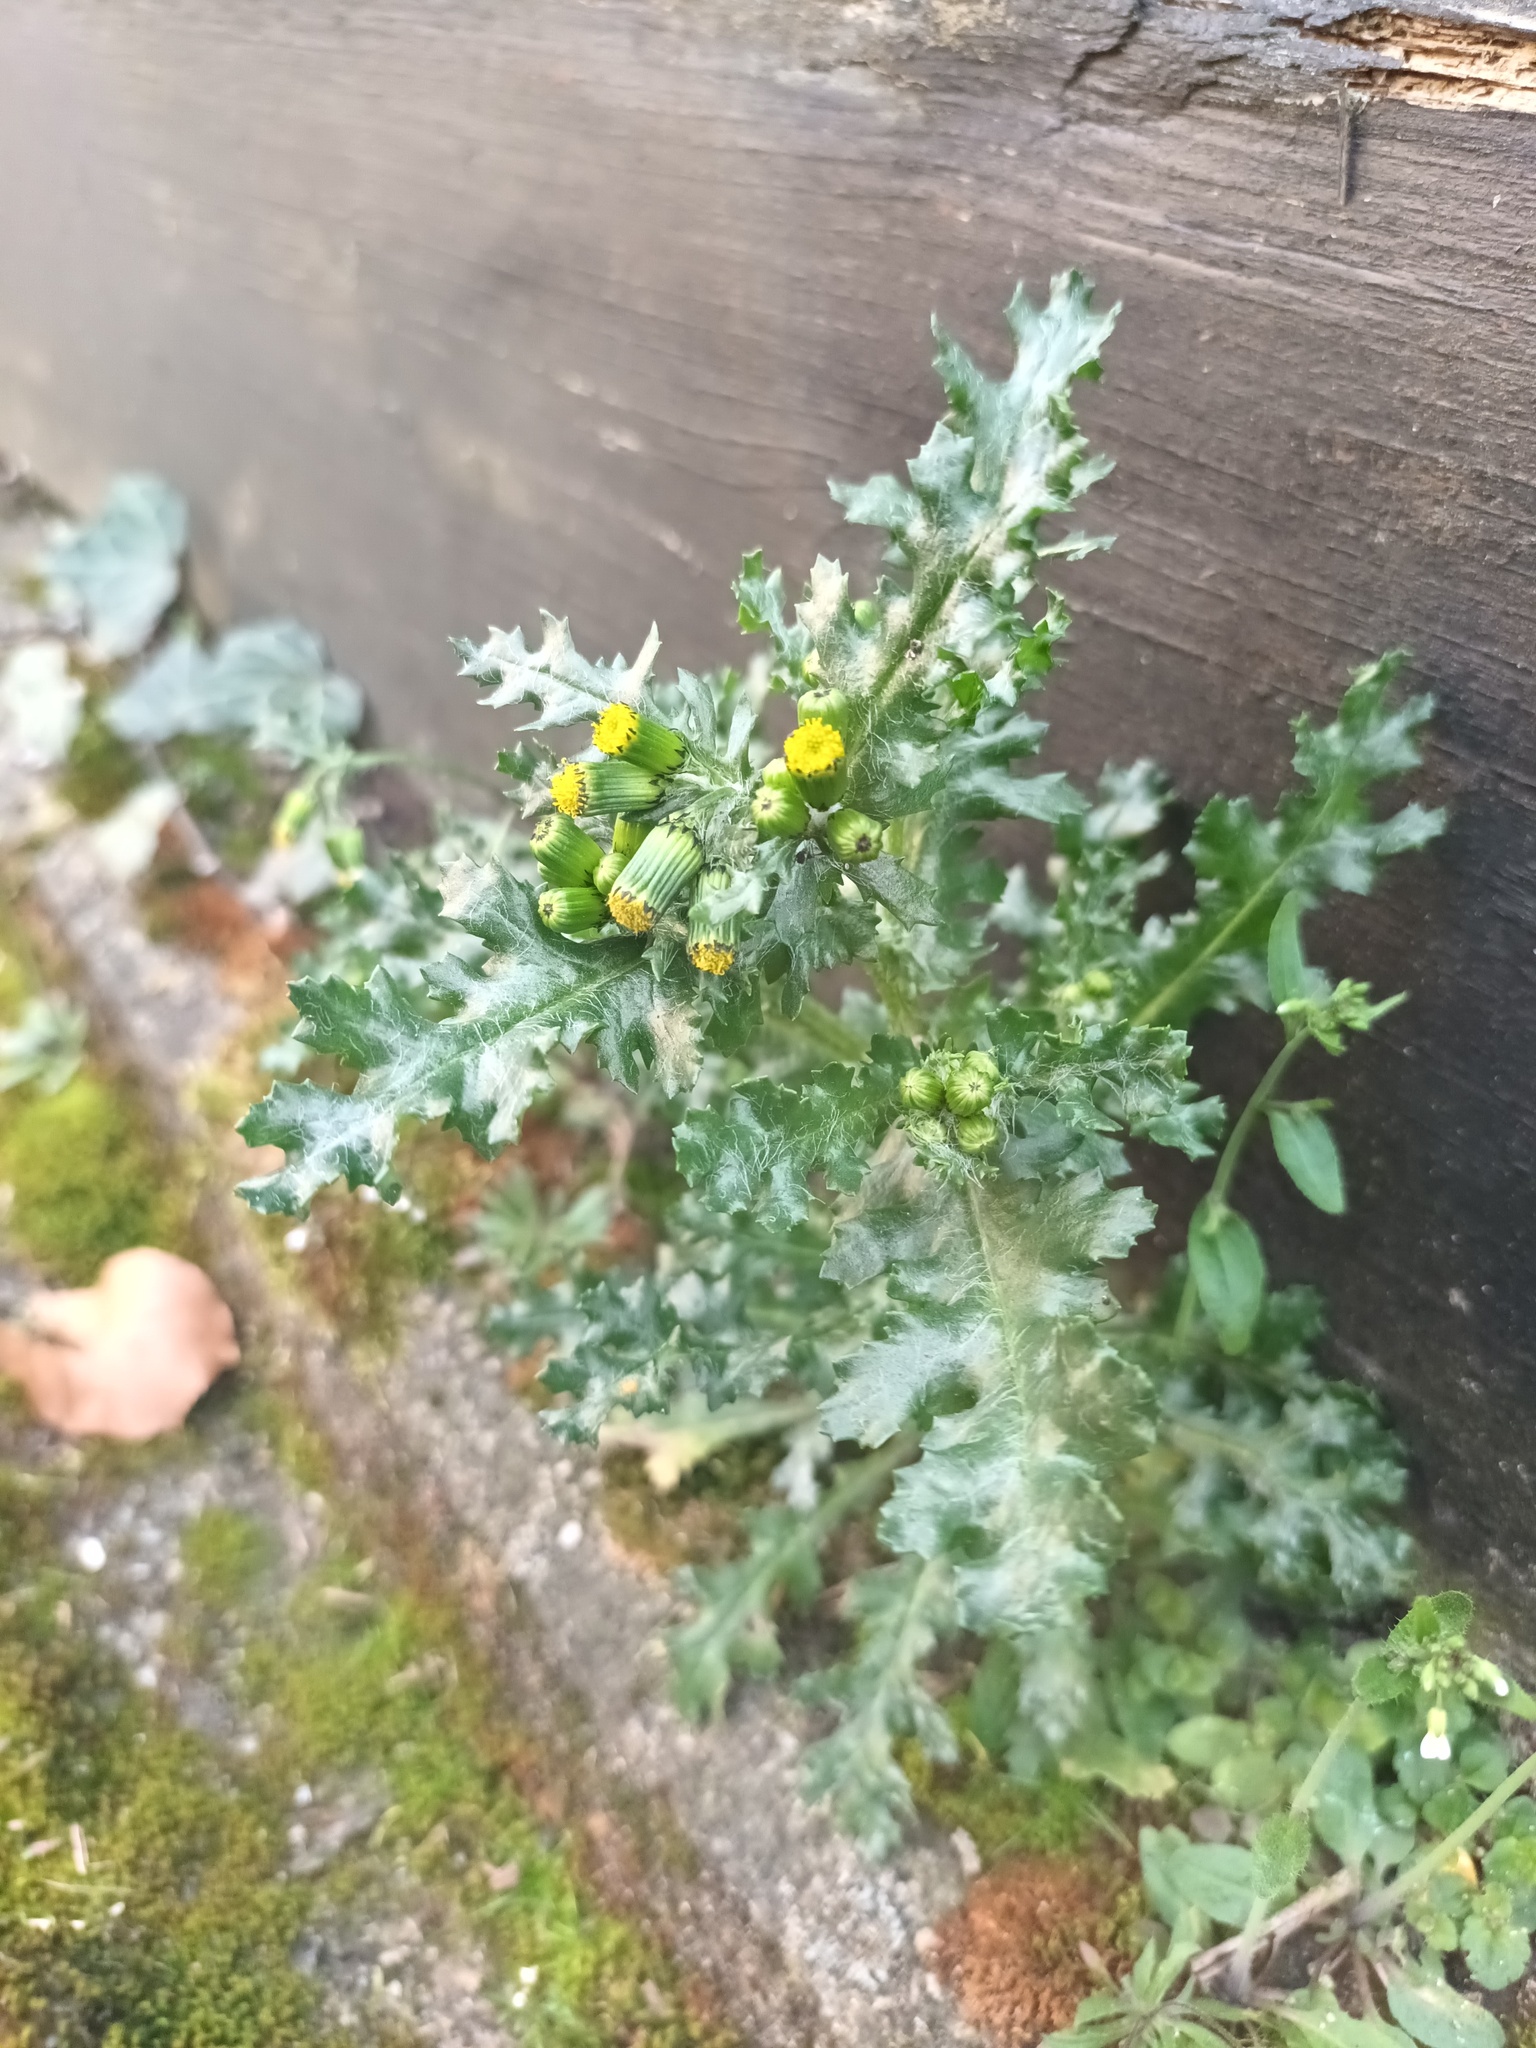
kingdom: Plantae
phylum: Tracheophyta
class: Magnoliopsida
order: Asterales
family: Asteraceae
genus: Senecio
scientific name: Senecio vulgaris
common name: Old-man-in-the-spring
